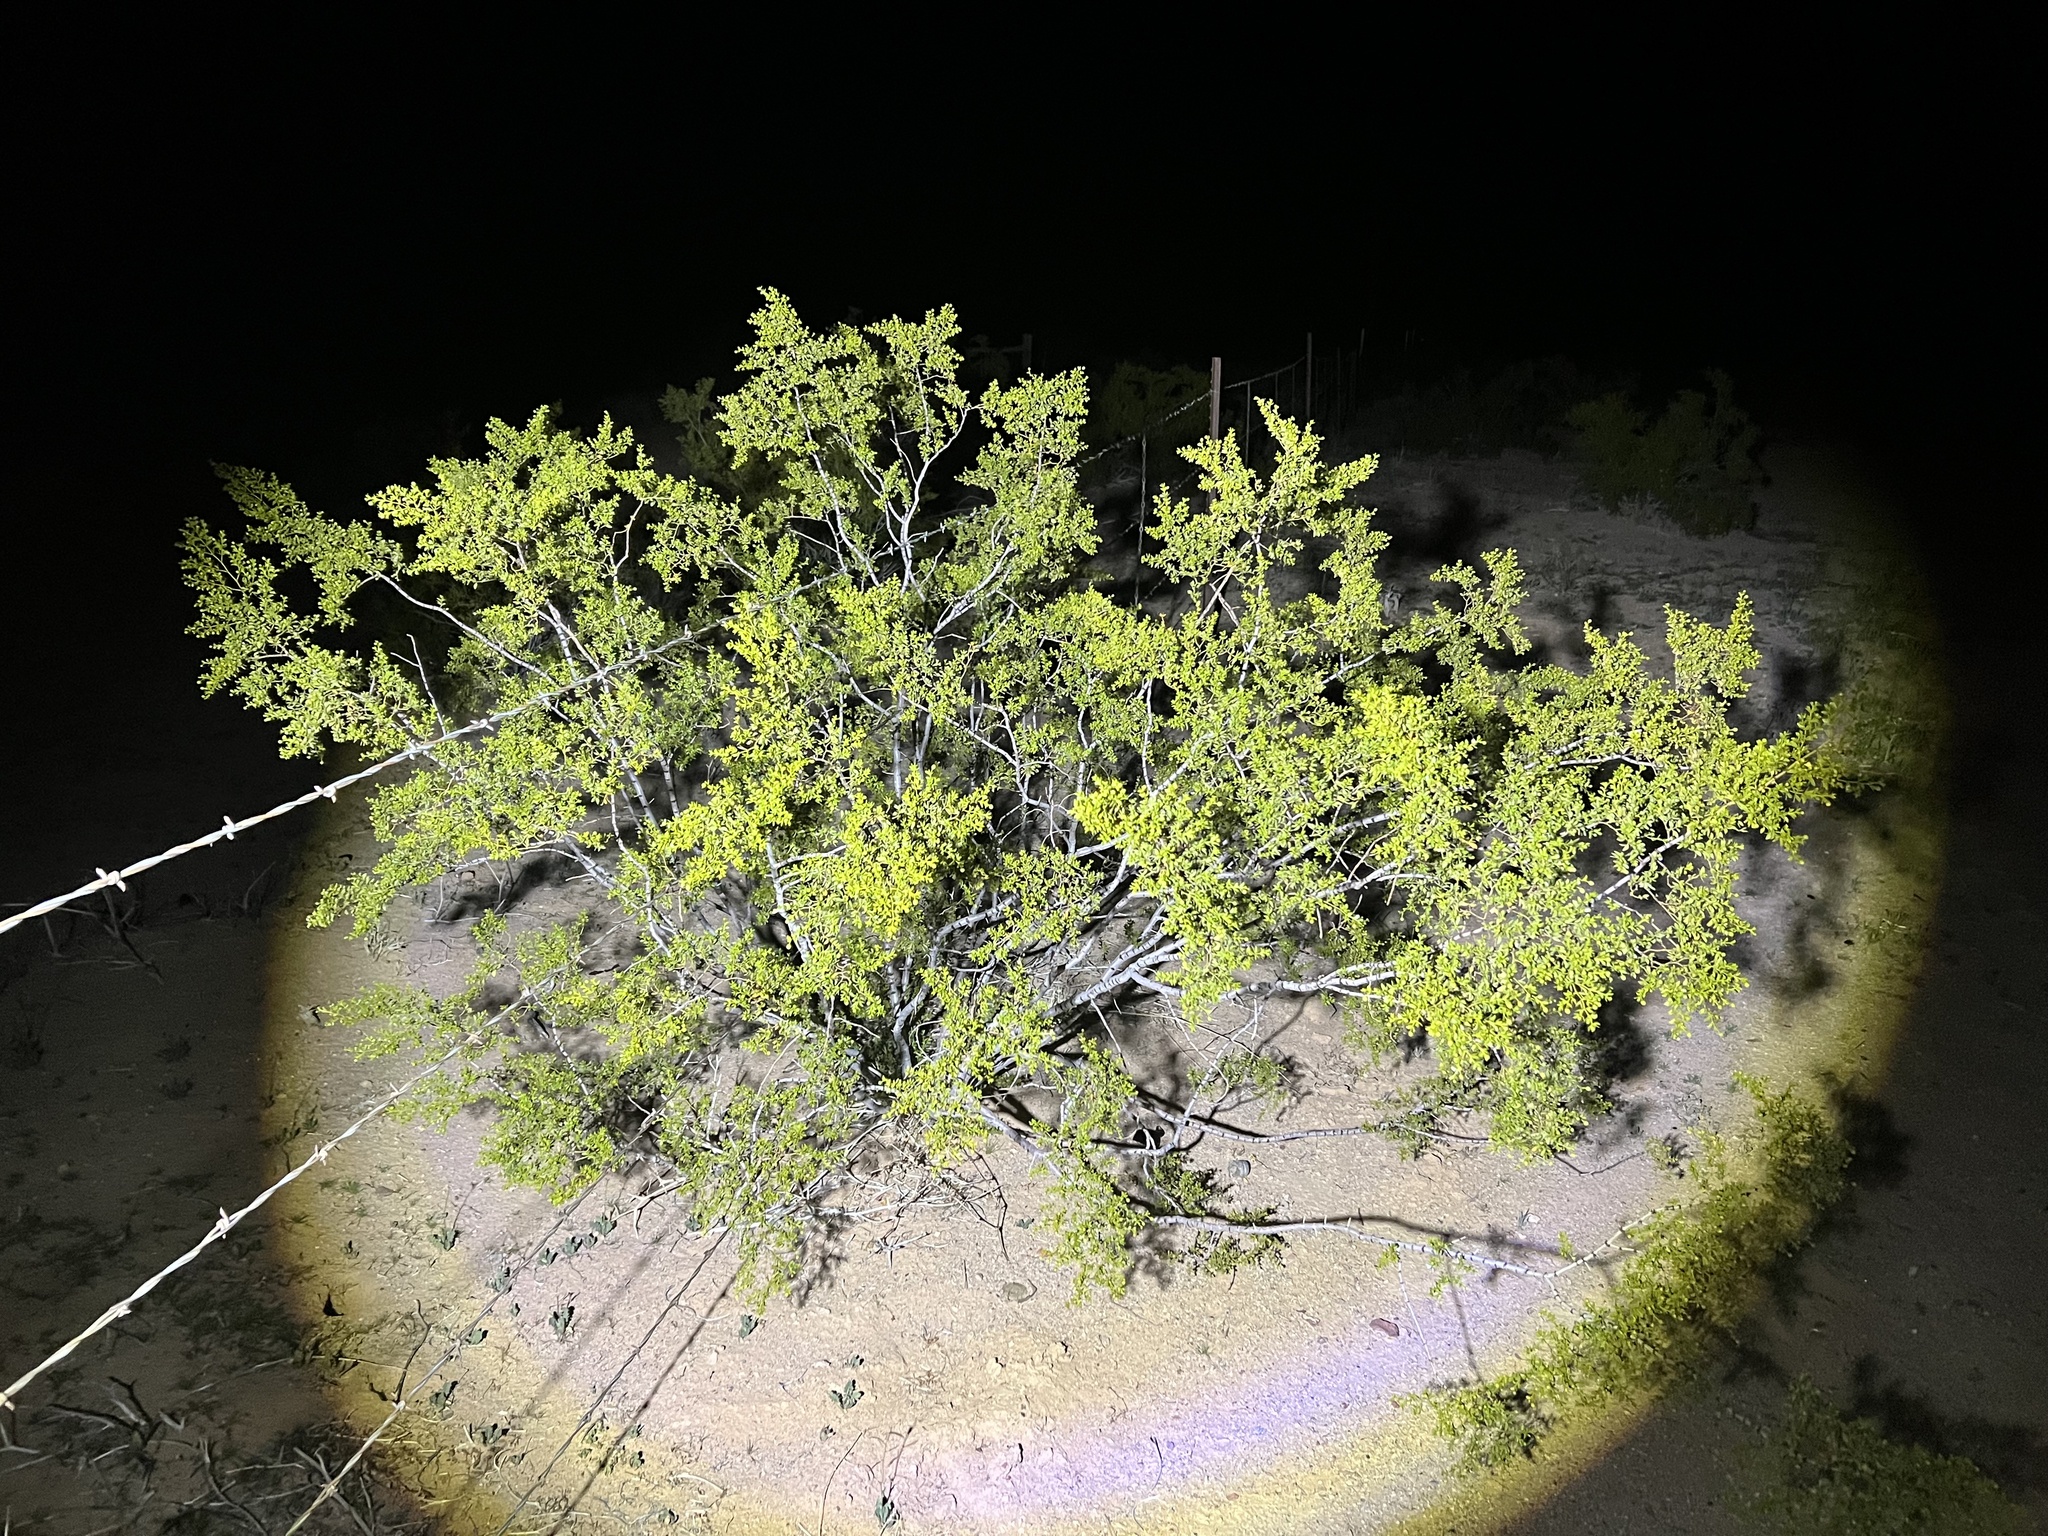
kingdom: Plantae
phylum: Tracheophyta
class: Magnoliopsida
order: Zygophyllales
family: Zygophyllaceae
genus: Larrea
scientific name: Larrea tridentata
